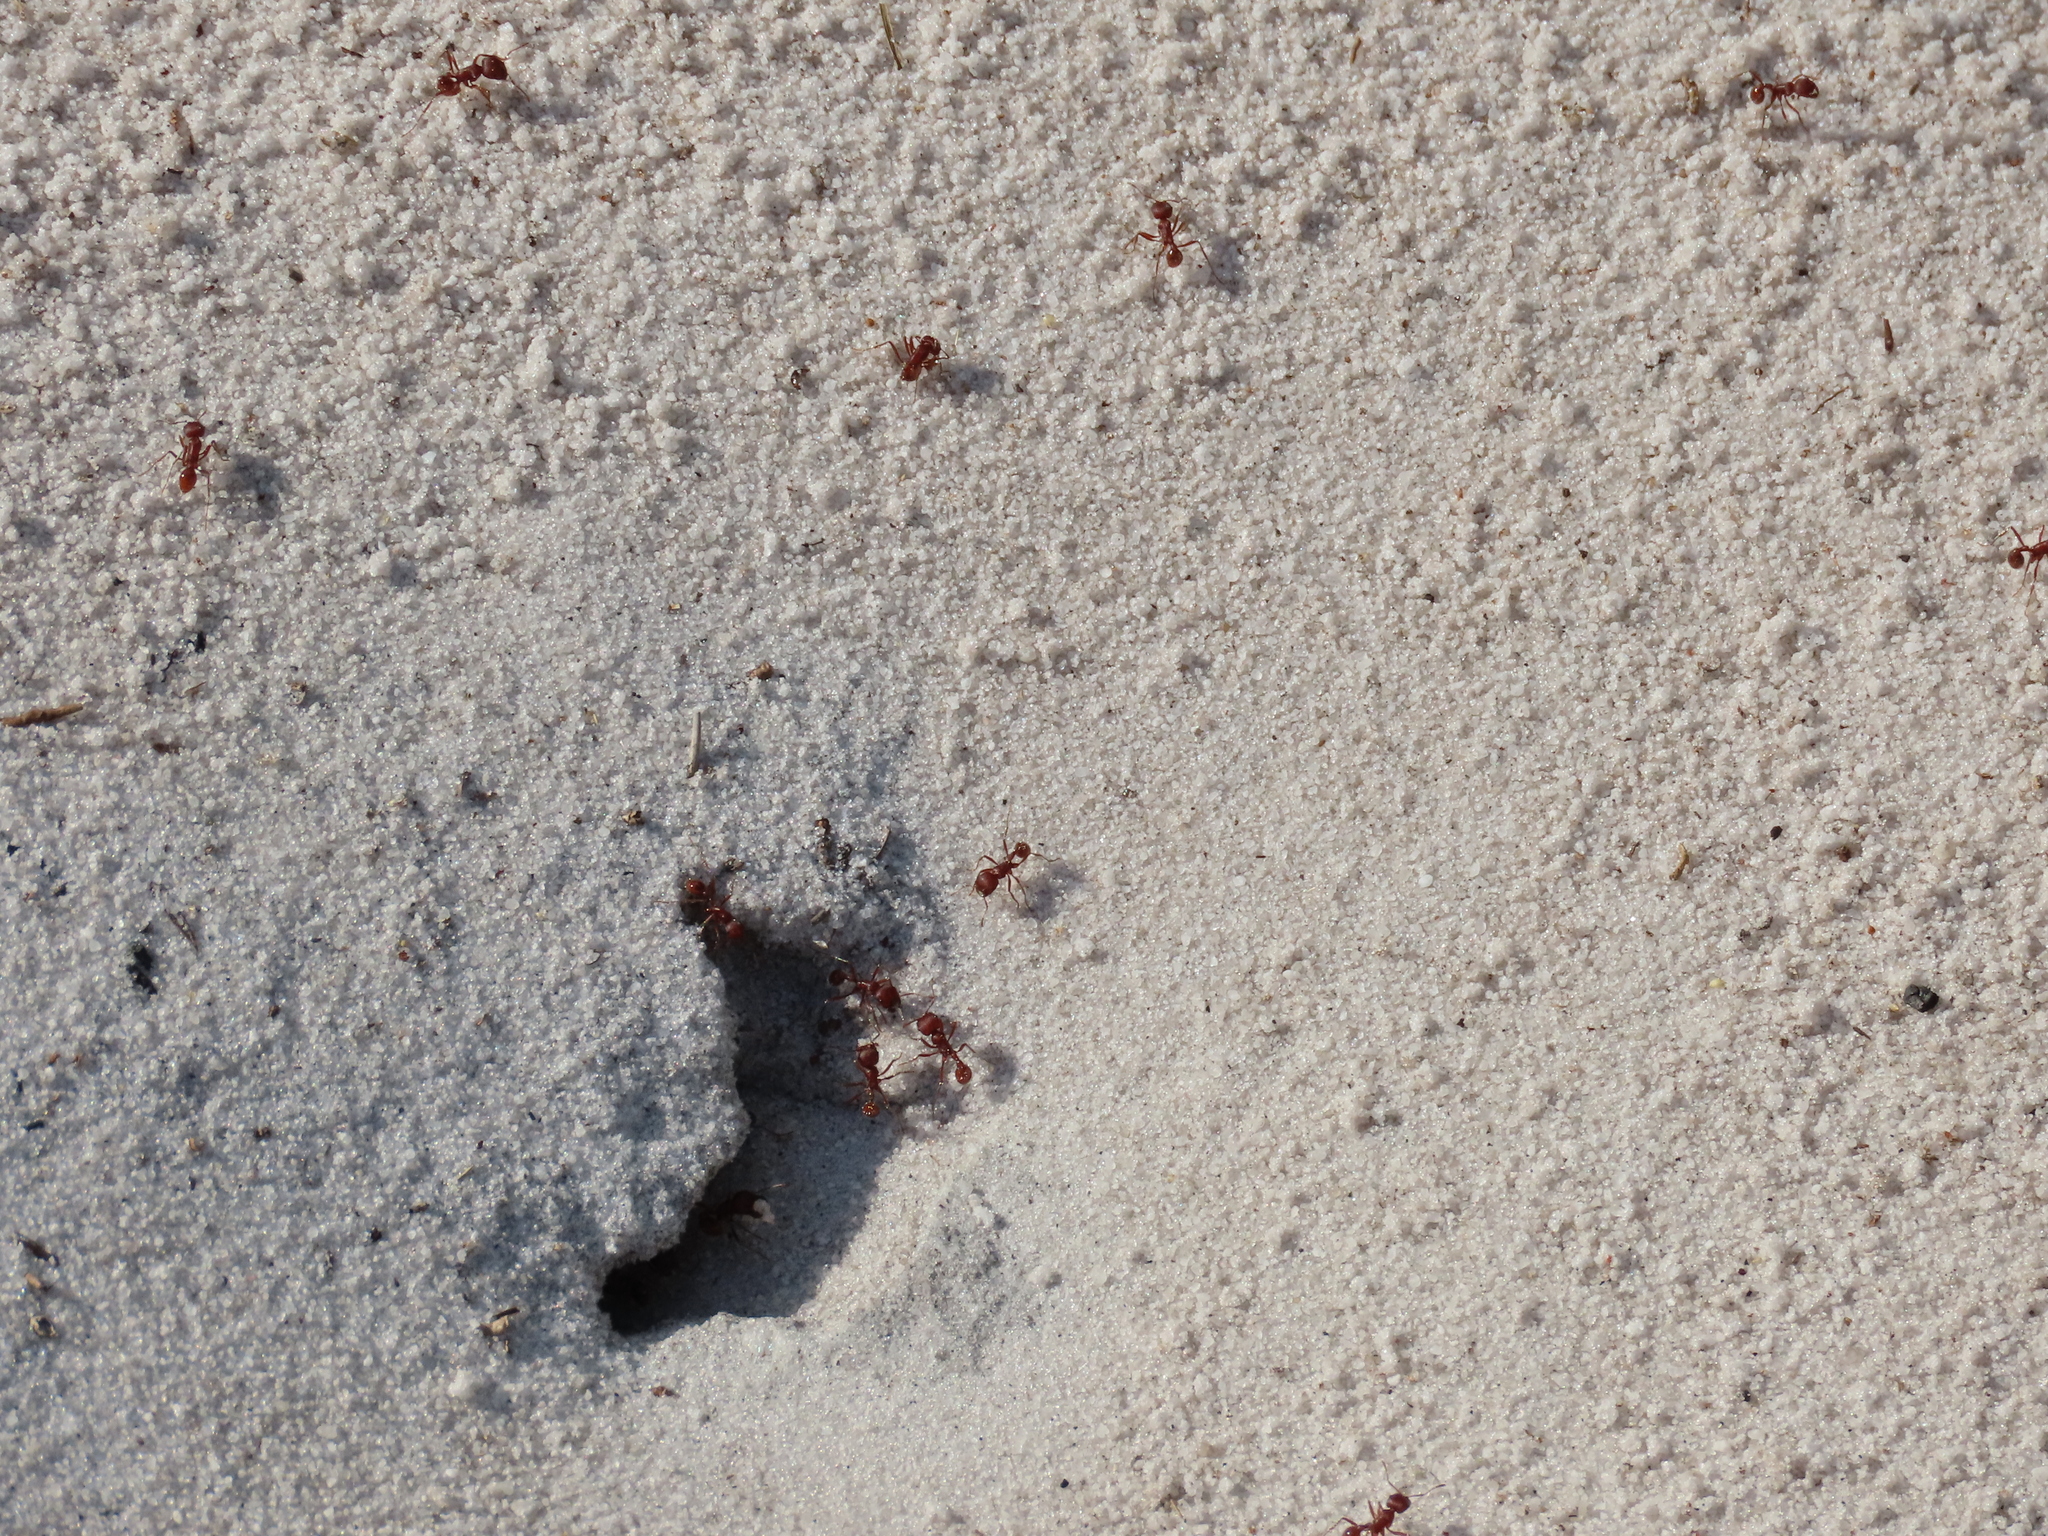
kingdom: Animalia
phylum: Arthropoda
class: Insecta
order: Hymenoptera
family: Formicidae
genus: Pogonomyrmex
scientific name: Pogonomyrmex badius
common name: Florida harvester ant
